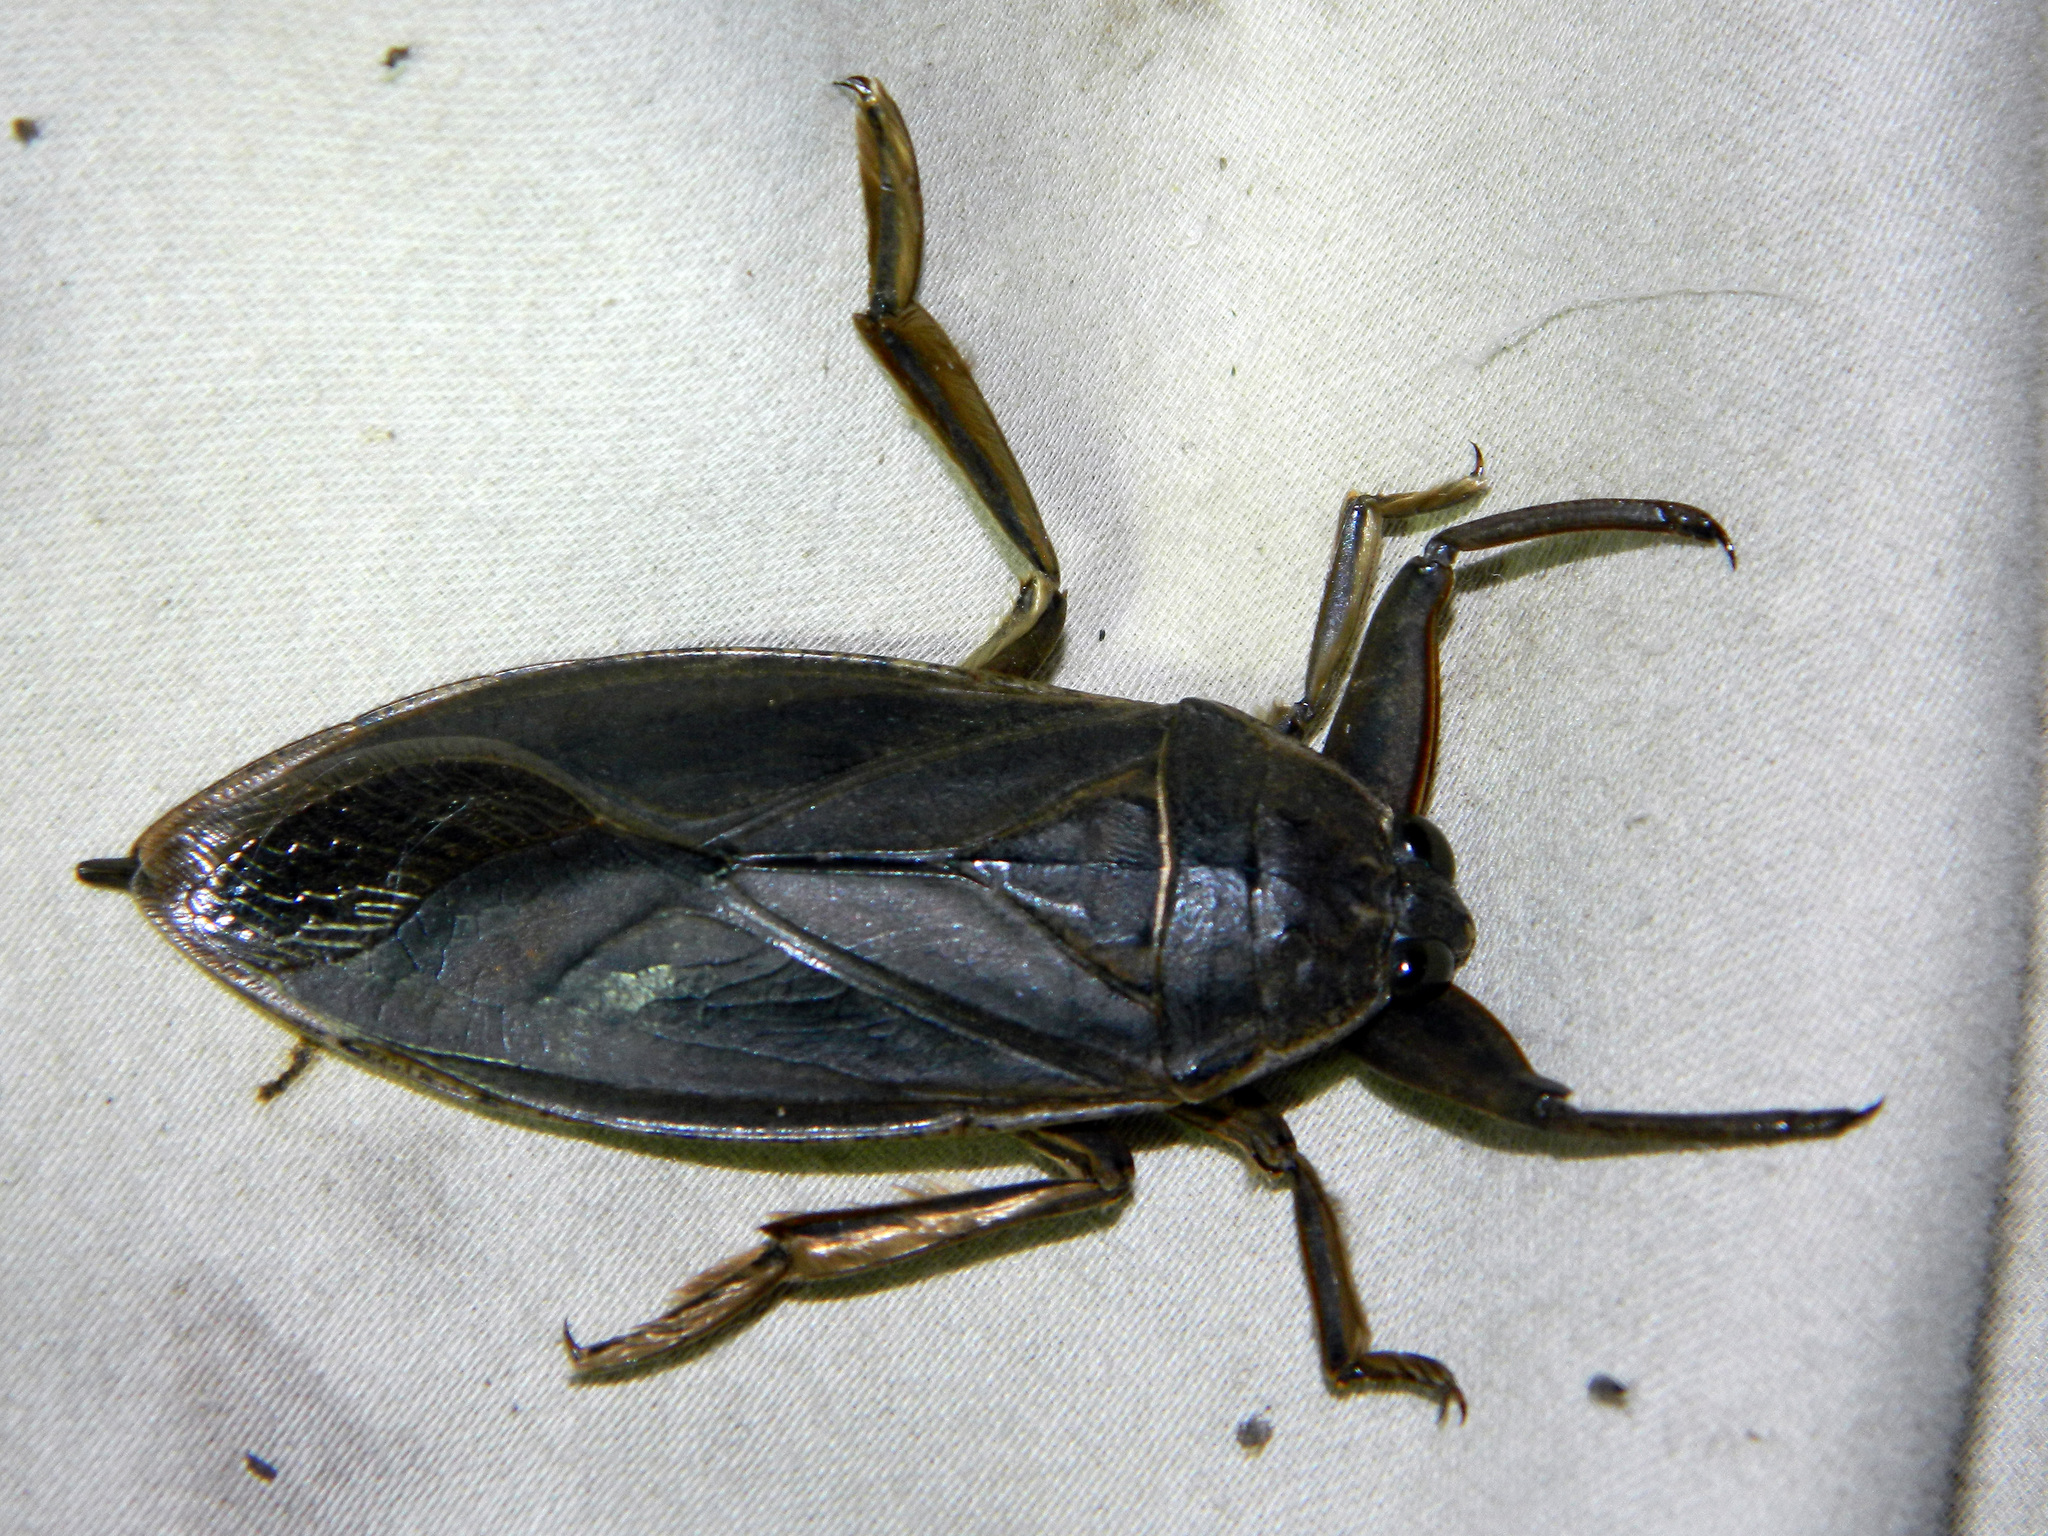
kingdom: Animalia
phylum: Arthropoda
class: Insecta
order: Hemiptera
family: Belostomatidae
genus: Lethocerus
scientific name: Lethocerus americanus
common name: Giant water bug
